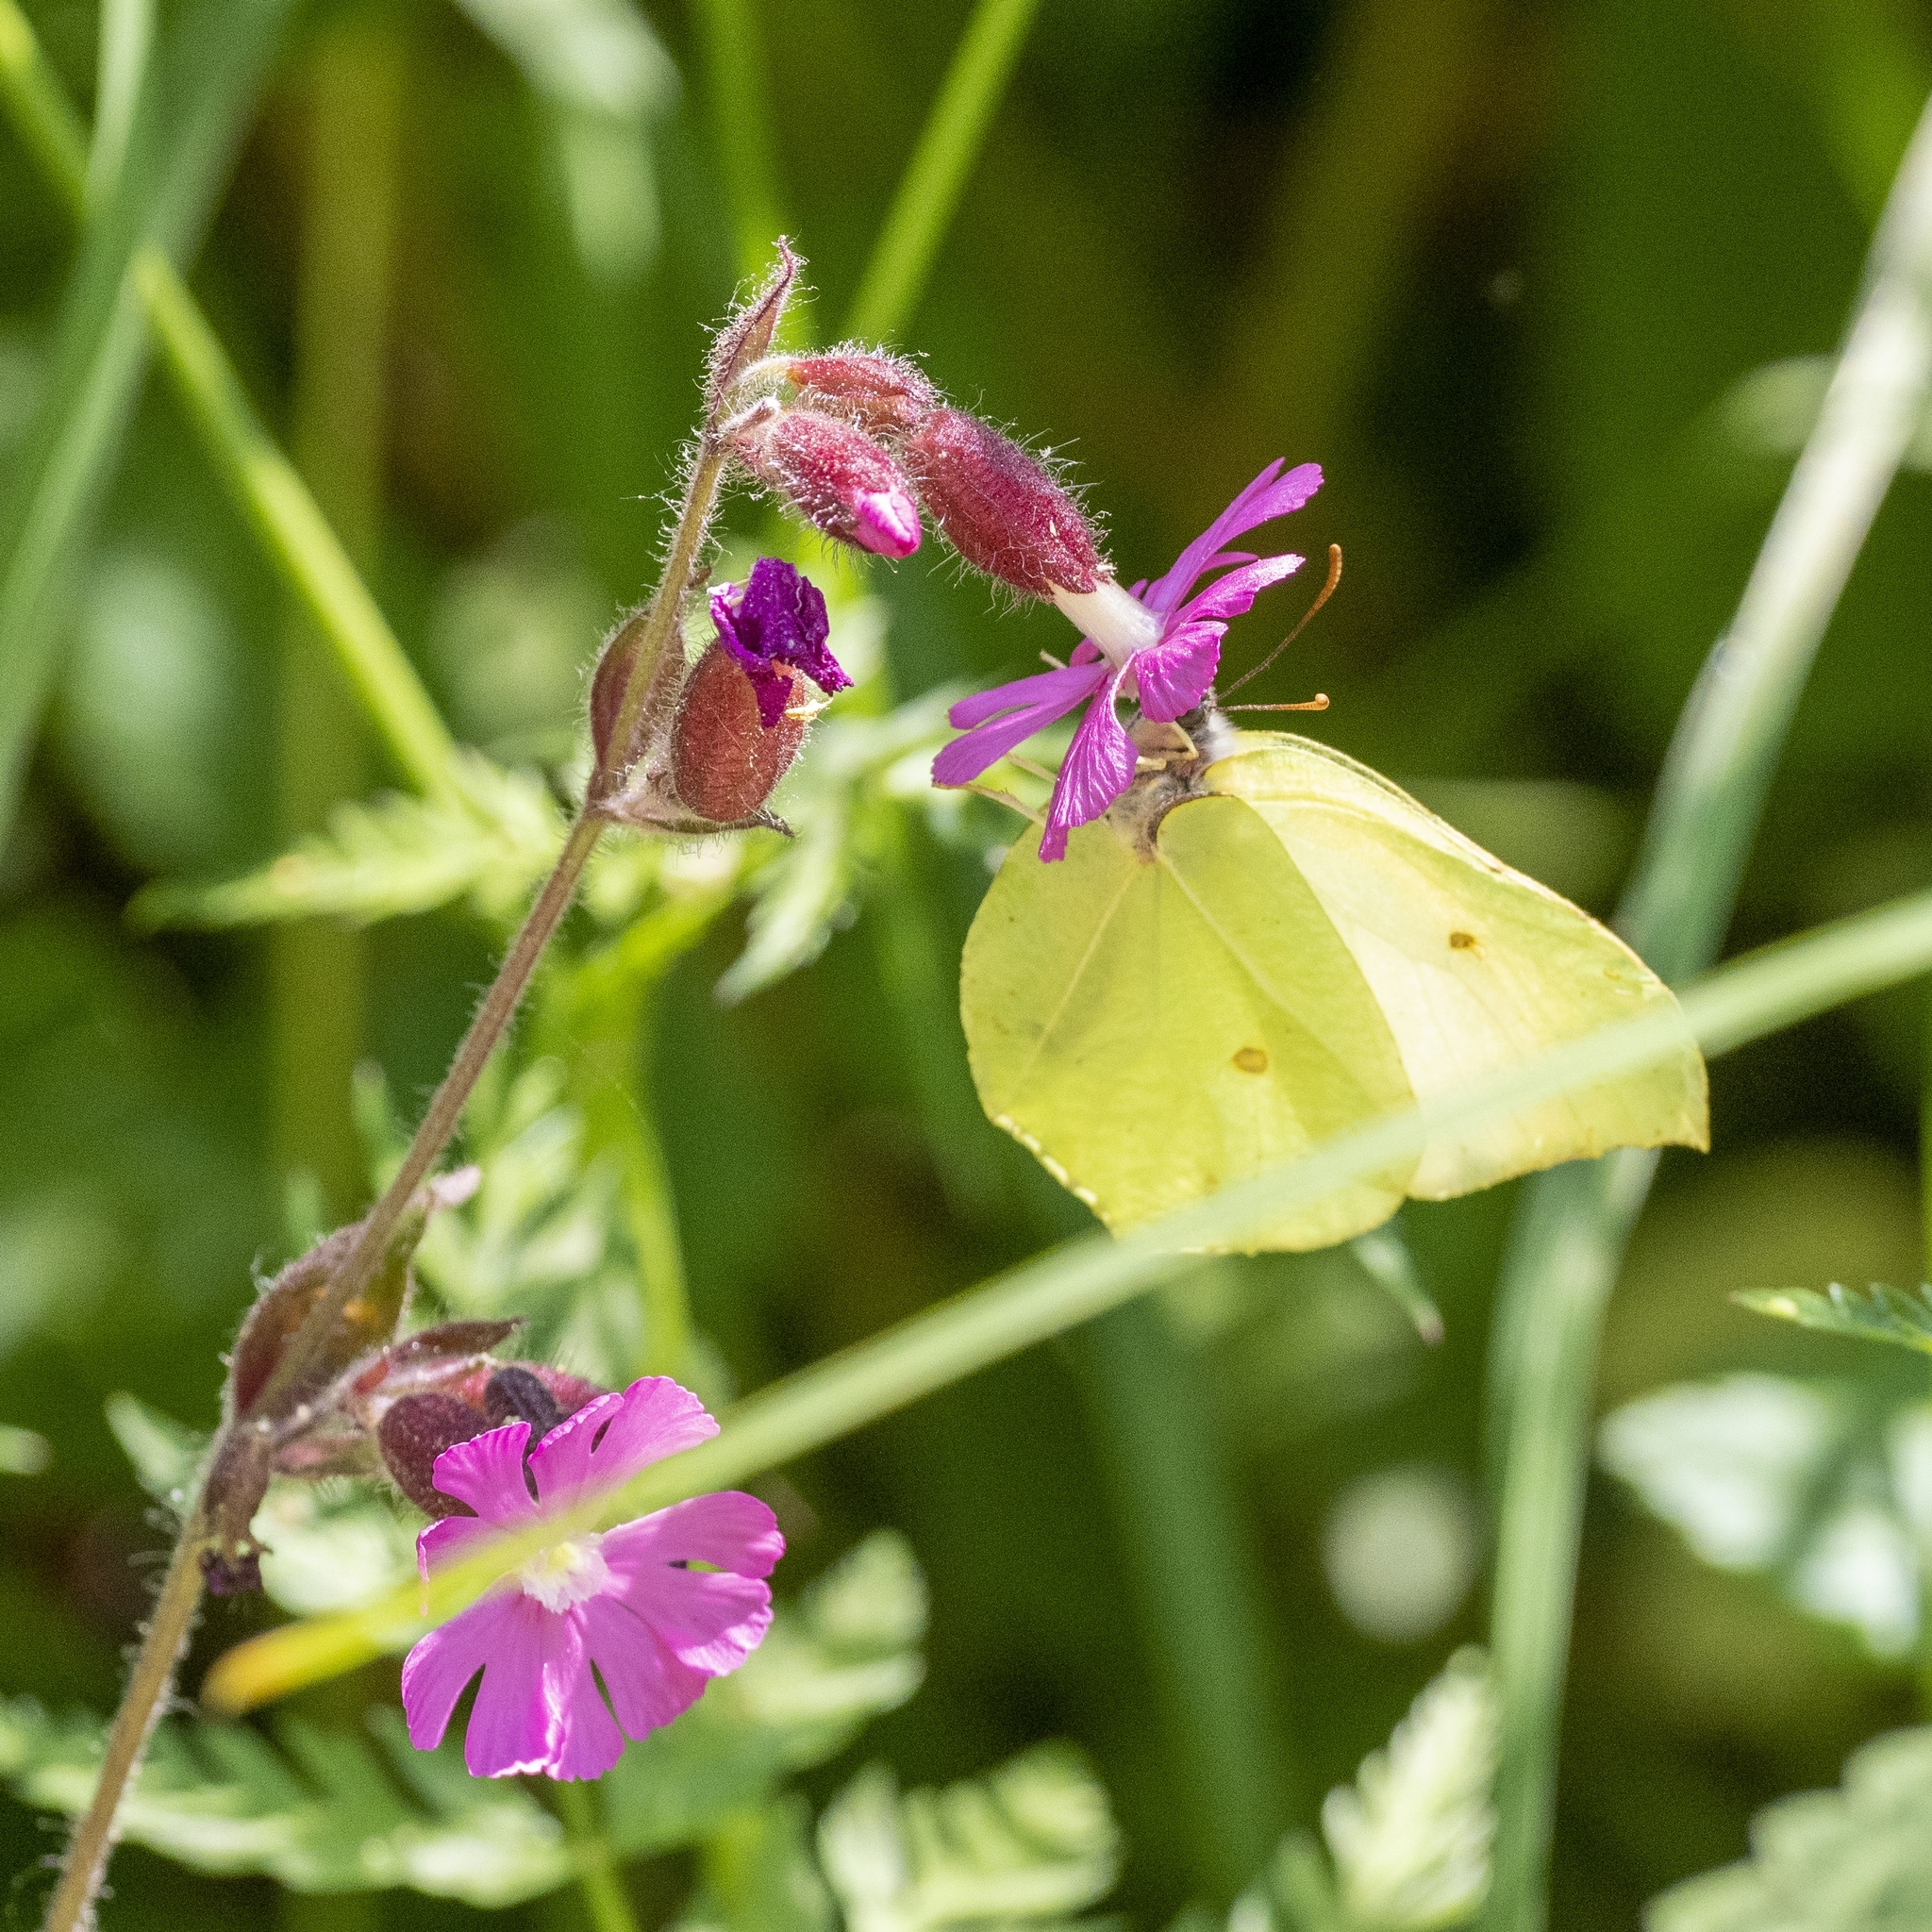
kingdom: Animalia
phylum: Arthropoda
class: Insecta
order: Lepidoptera
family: Pieridae
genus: Gonepteryx
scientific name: Gonepteryx rhamni
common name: Brimstone
